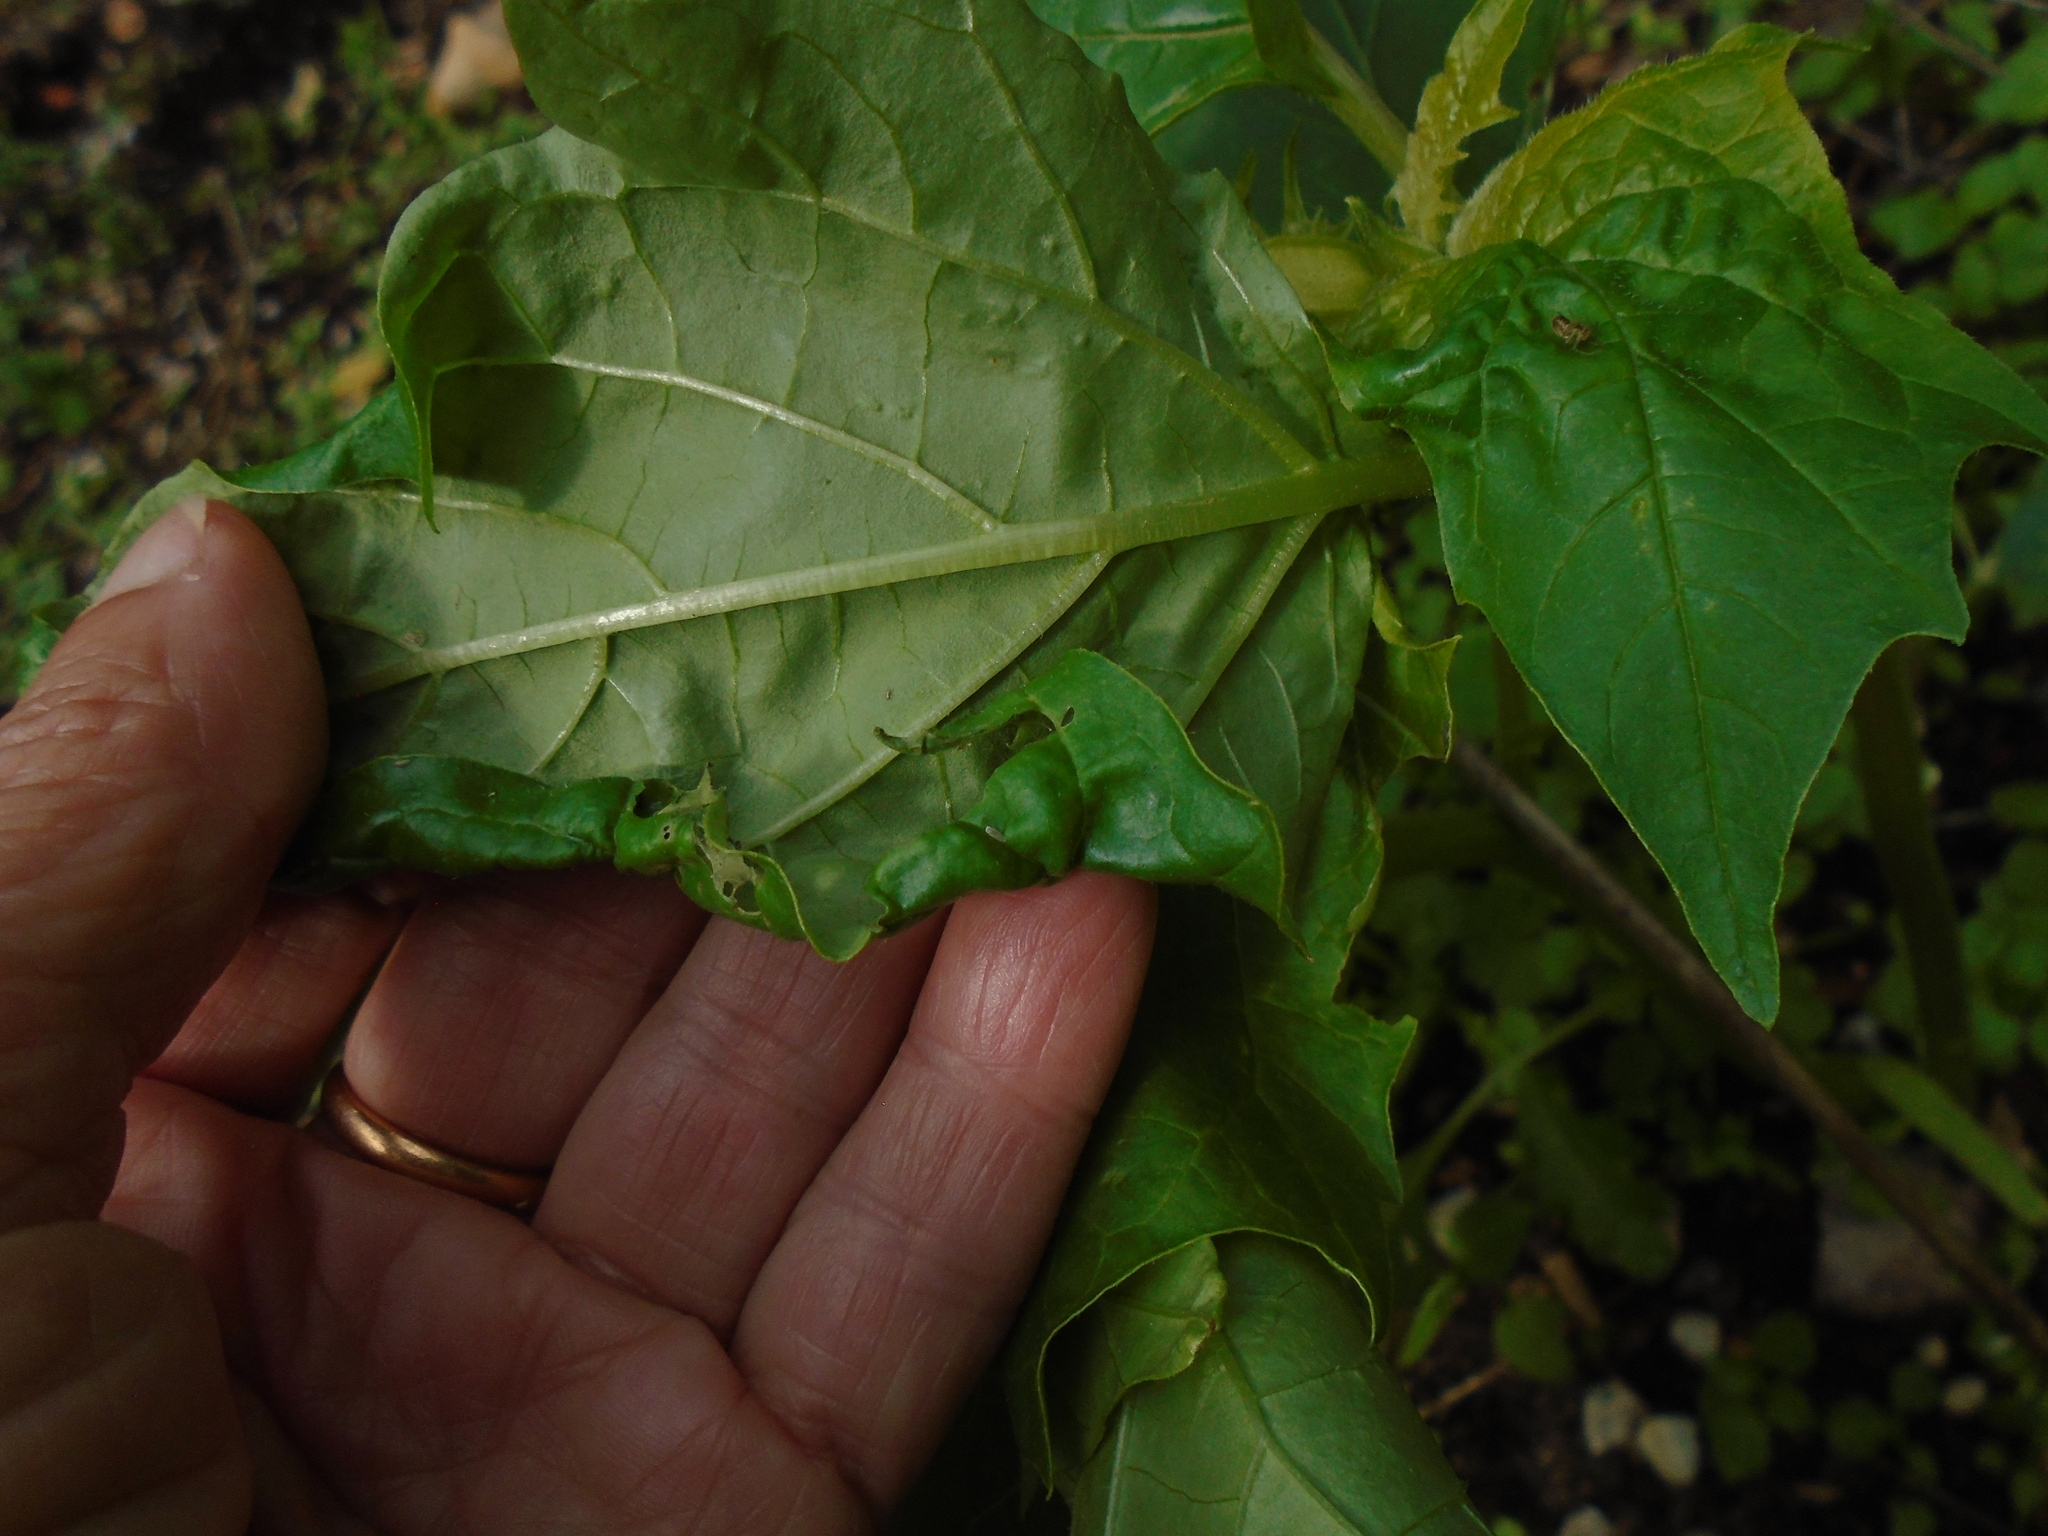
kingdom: Plantae
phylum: Tracheophyta
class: Magnoliopsida
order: Solanales
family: Solanaceae
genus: Datura
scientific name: Datura stramonium
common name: Thorn-apple
